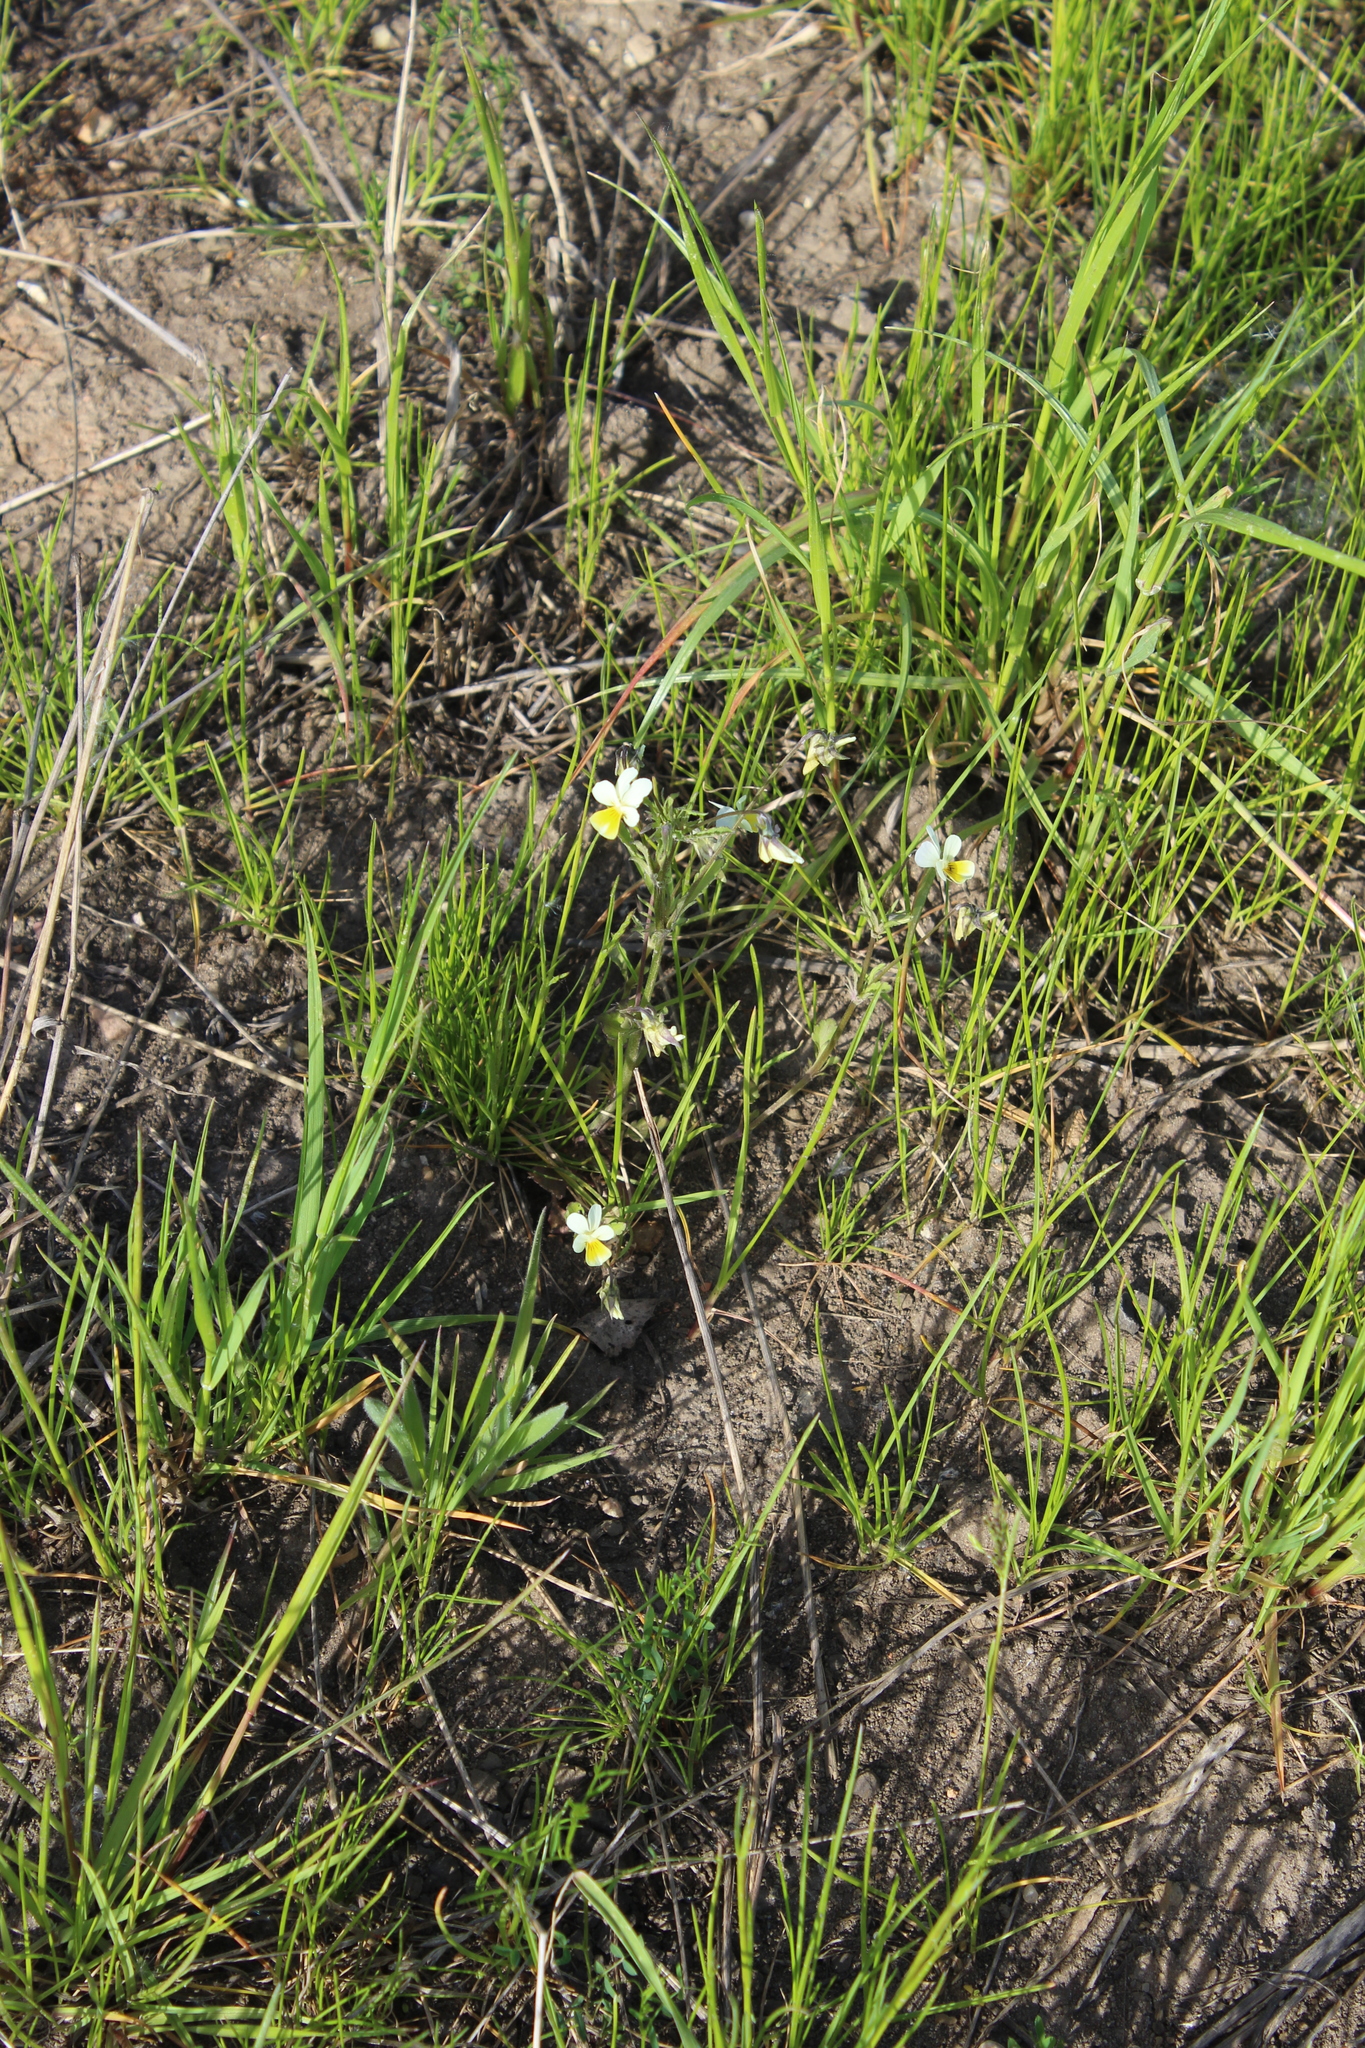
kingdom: Plantae
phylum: Tracheophyta
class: Magnoliopsida
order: Malpighiales
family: Violaceae
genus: Viola
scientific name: Viola arvensis
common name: Field pansy
